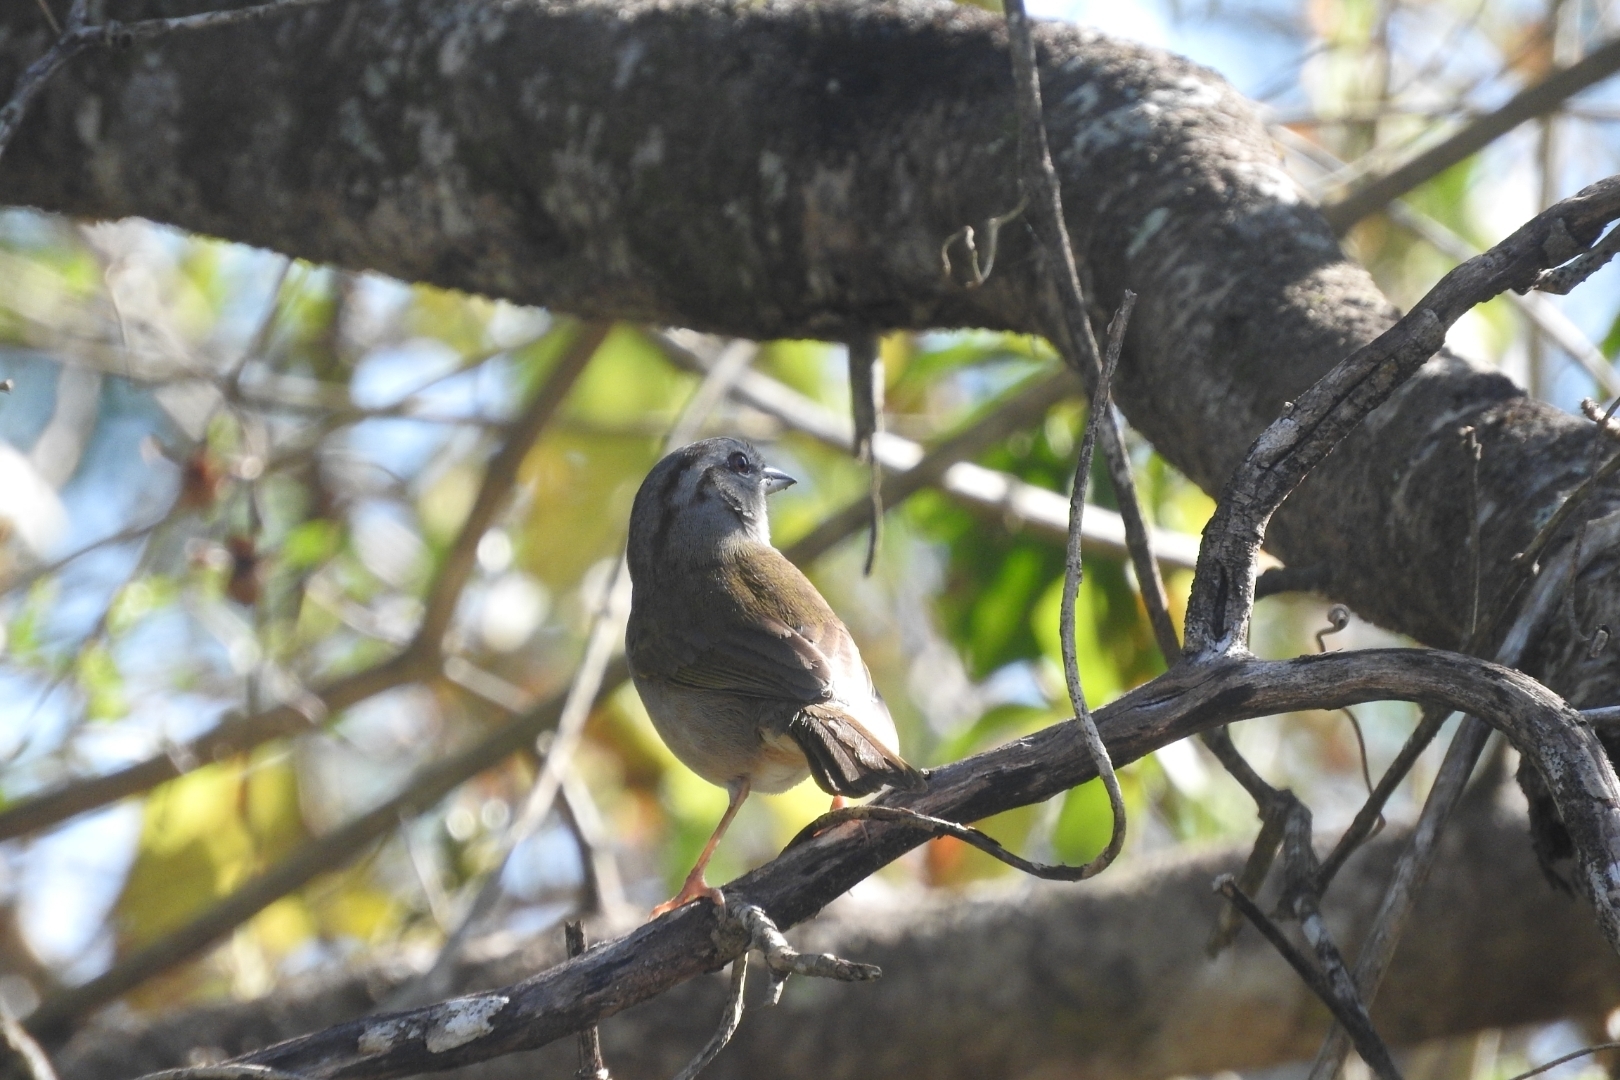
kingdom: Animalia
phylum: Chordata
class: Aves
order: Passeriformes
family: Passerellidae
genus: Arremonops
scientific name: Arremonops rufivirgatus
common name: Olive sparrow
